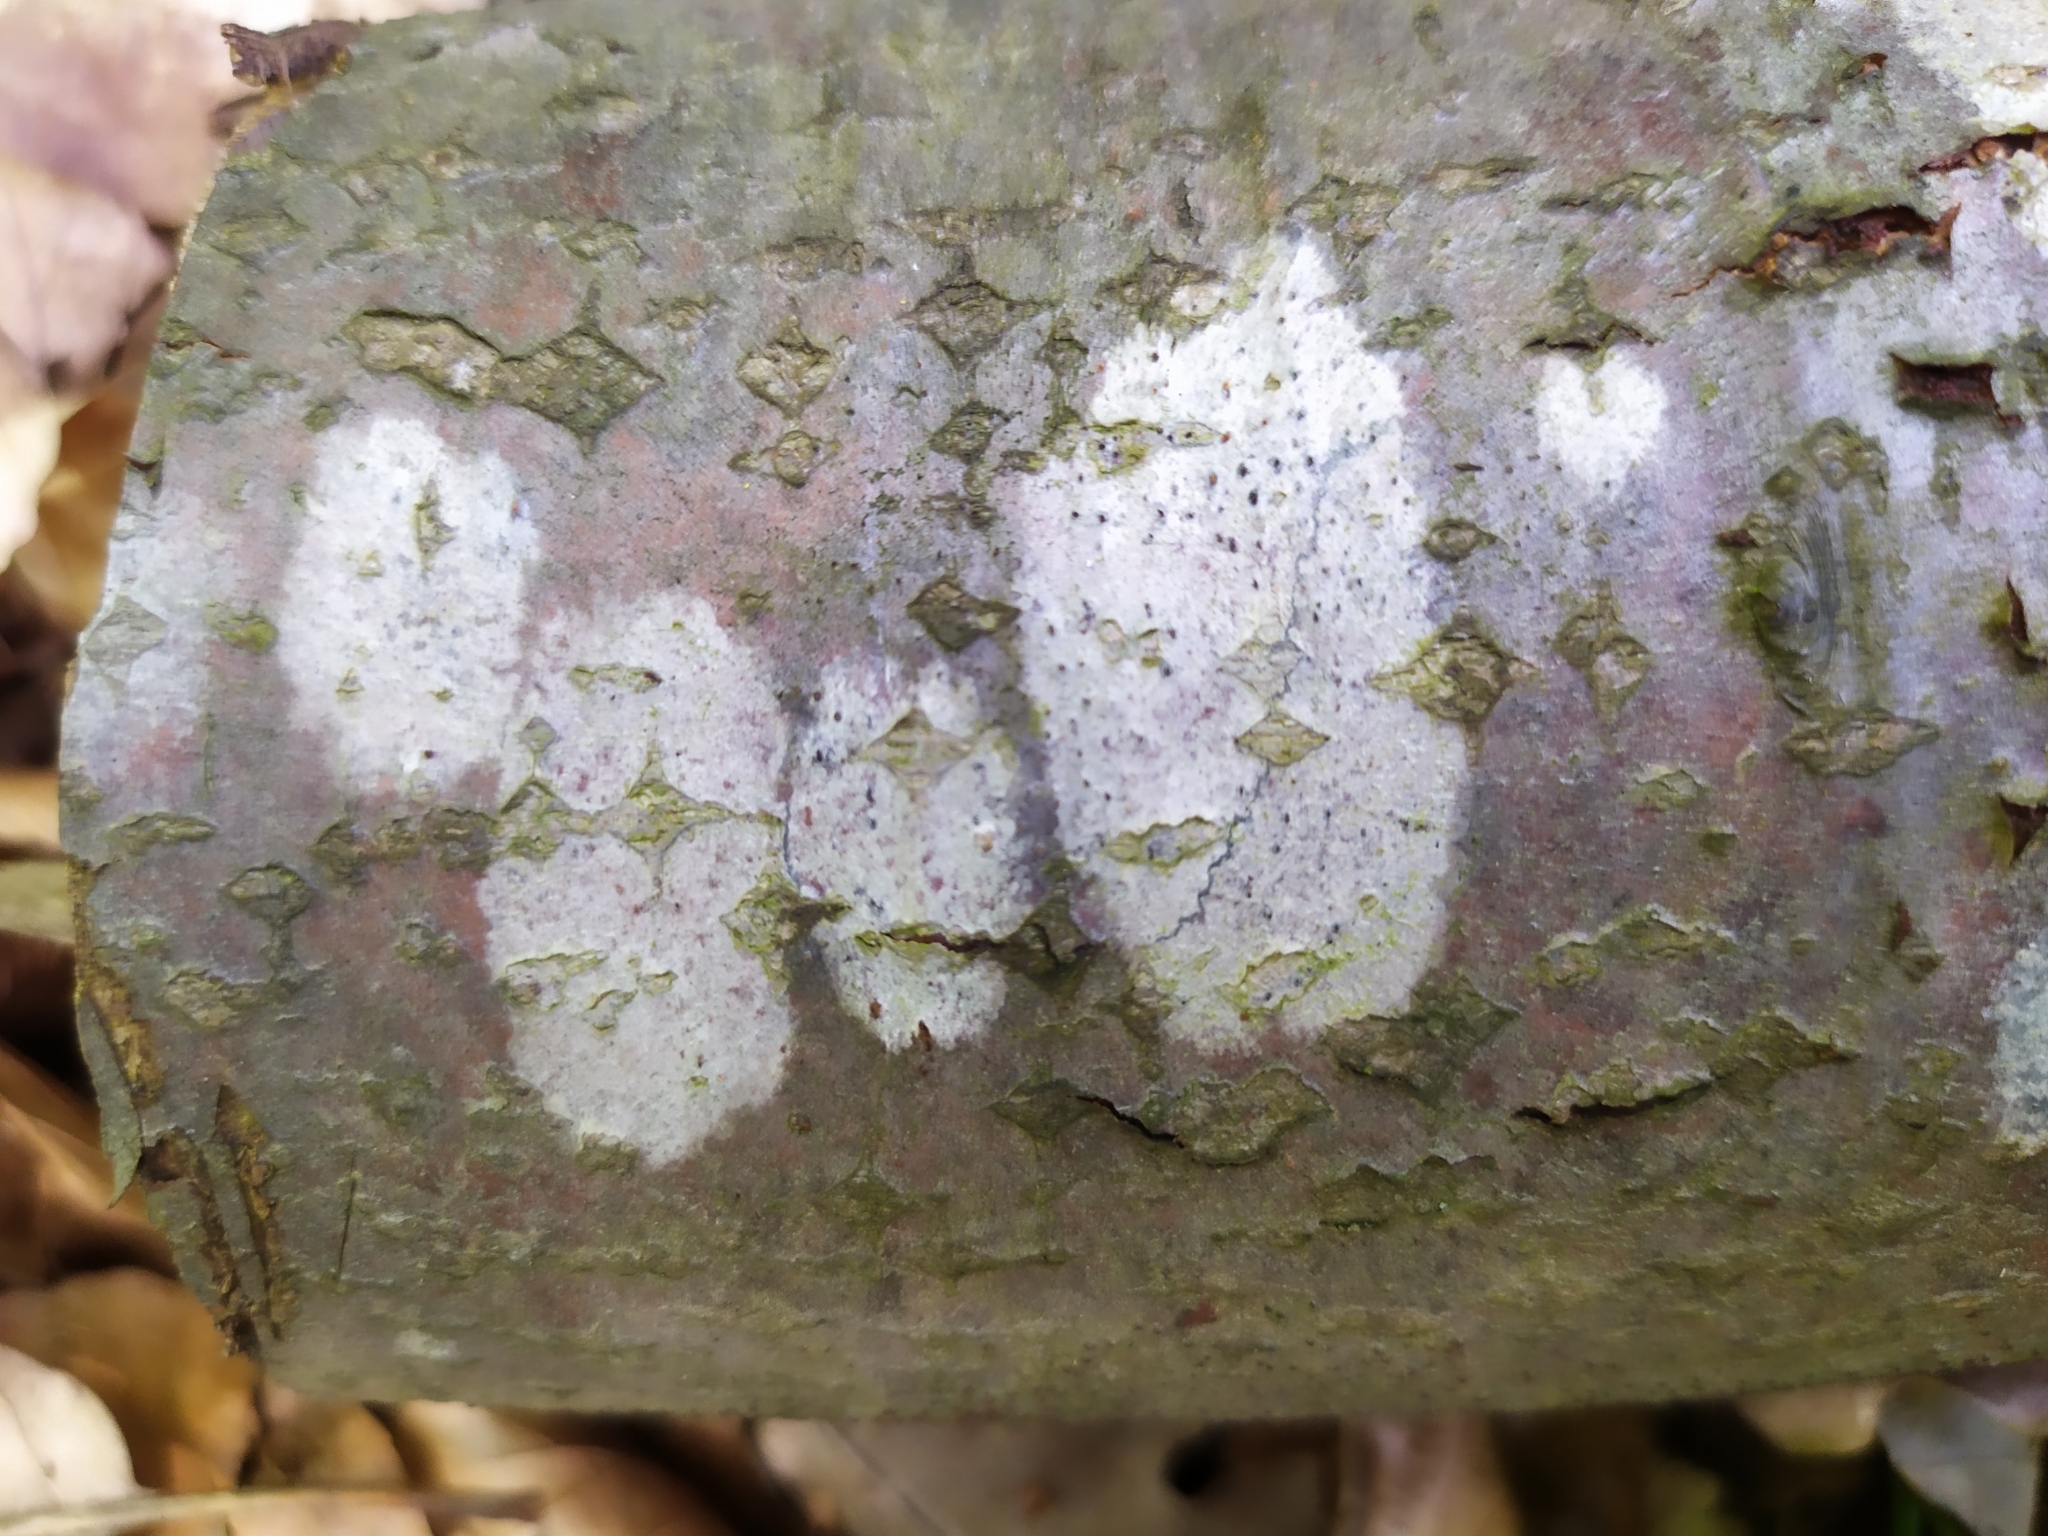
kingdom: Fungi
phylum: Ascomycota
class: Lecanoromycetes
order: Ostropales
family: Phlyctidaceae
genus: Phlyctis
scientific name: Phlyctis argena
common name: Whitewash lichen
